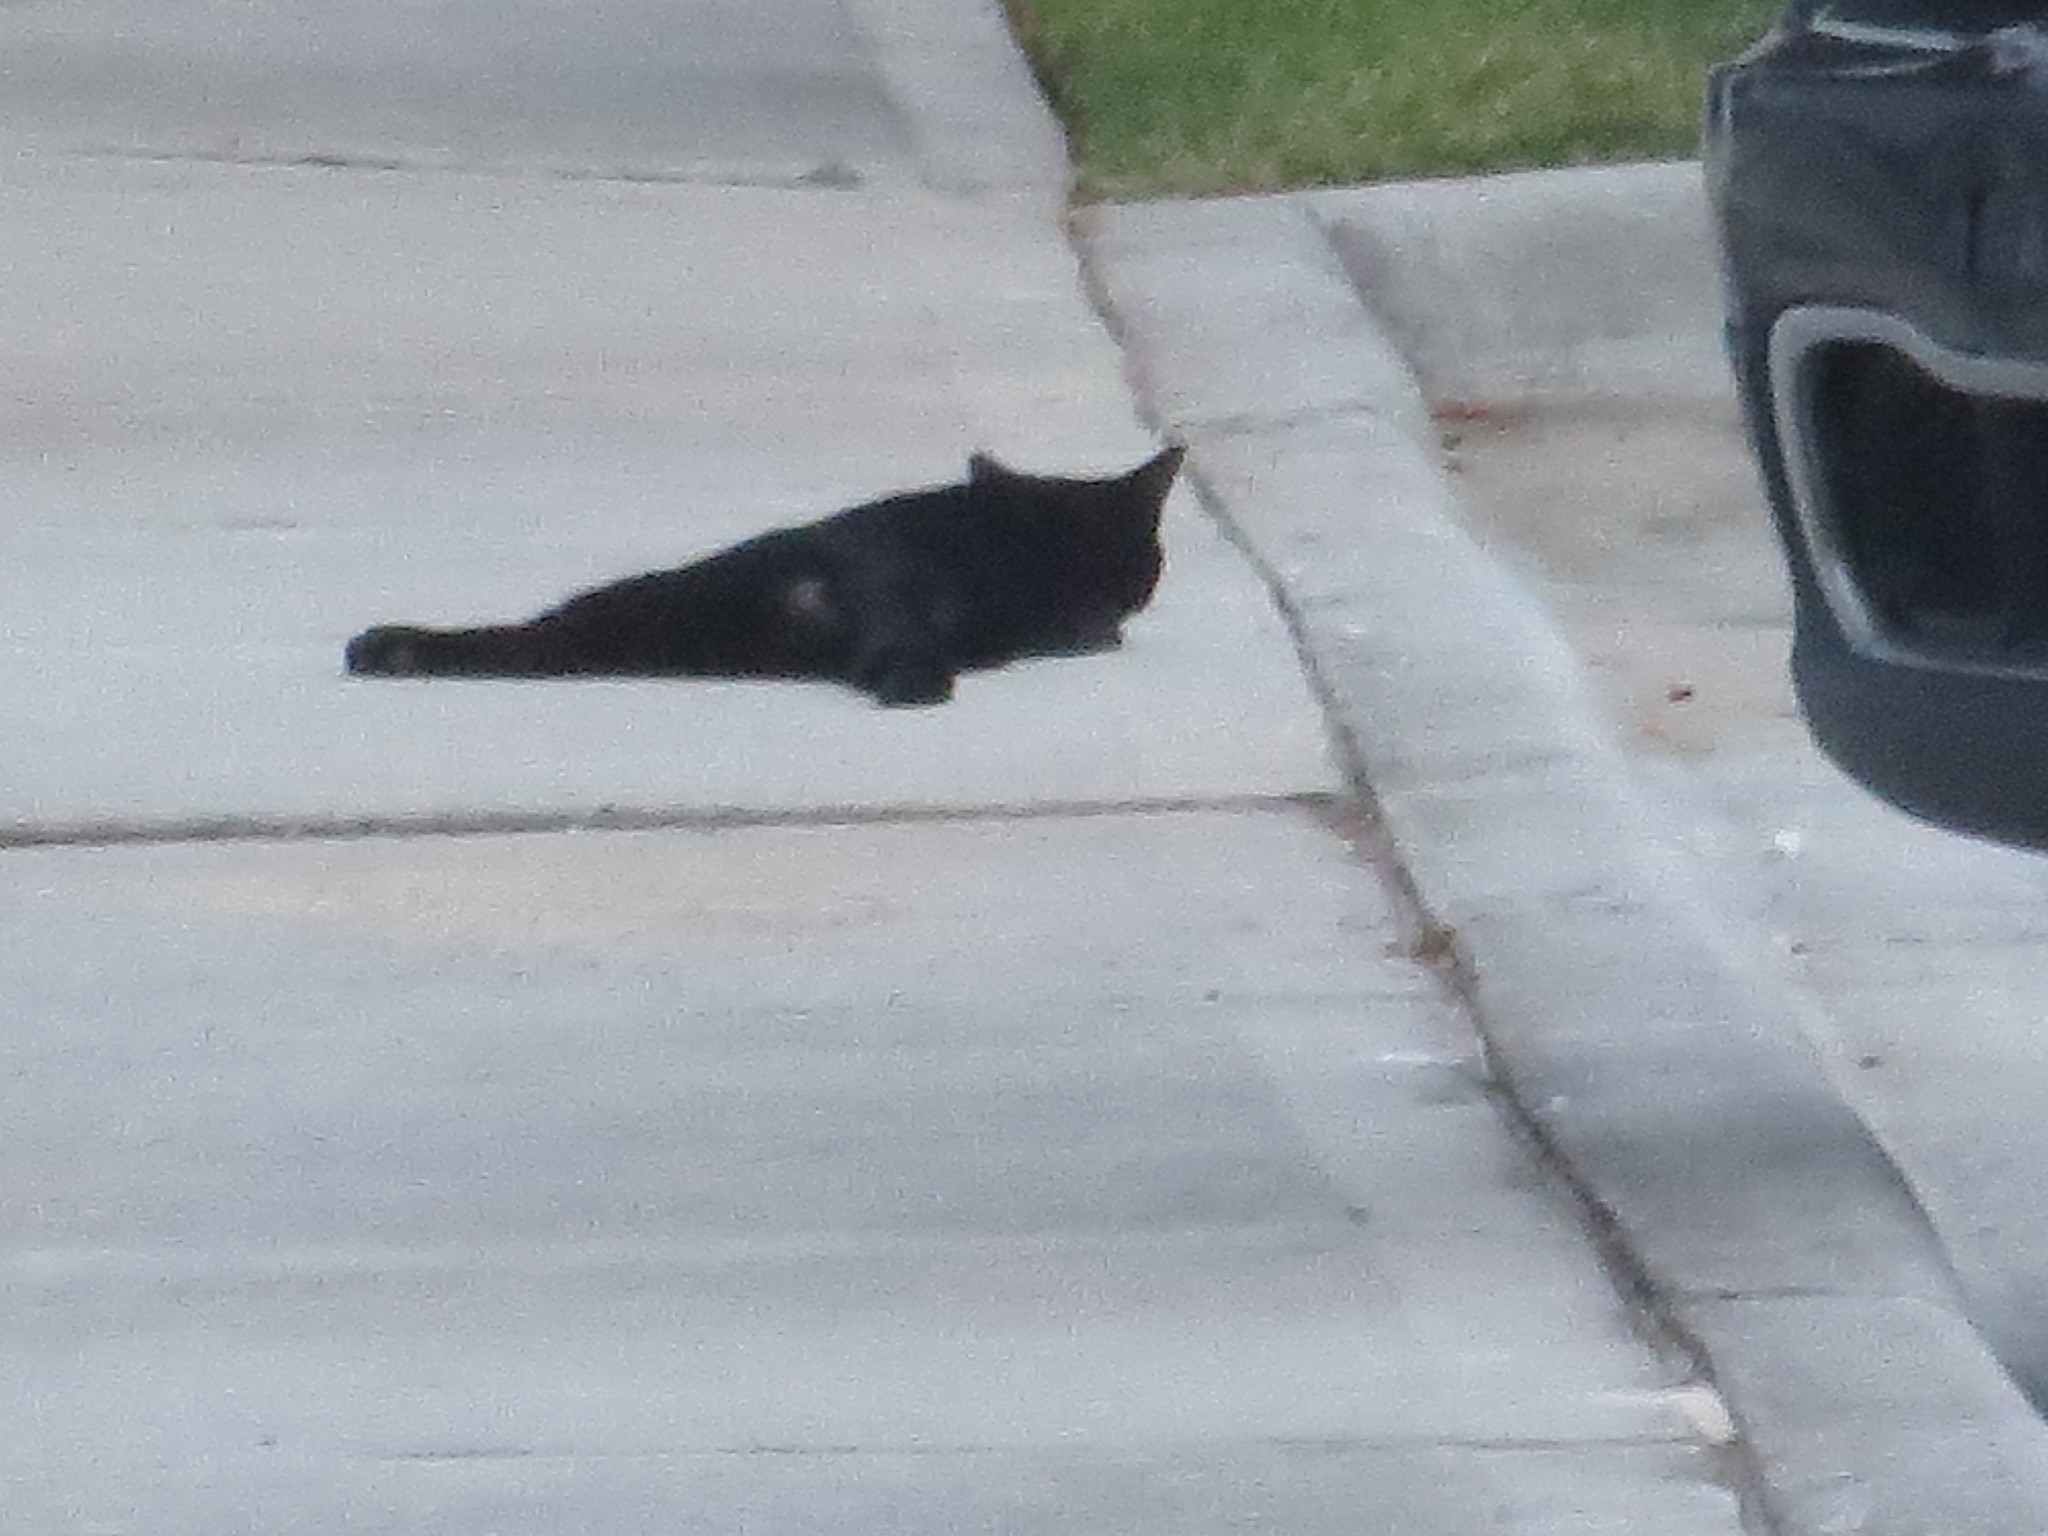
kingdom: Animalia
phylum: Chordata
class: Mammalia
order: Carnivora
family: Felidae
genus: Felis
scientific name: Felis catus
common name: Domestic cat
